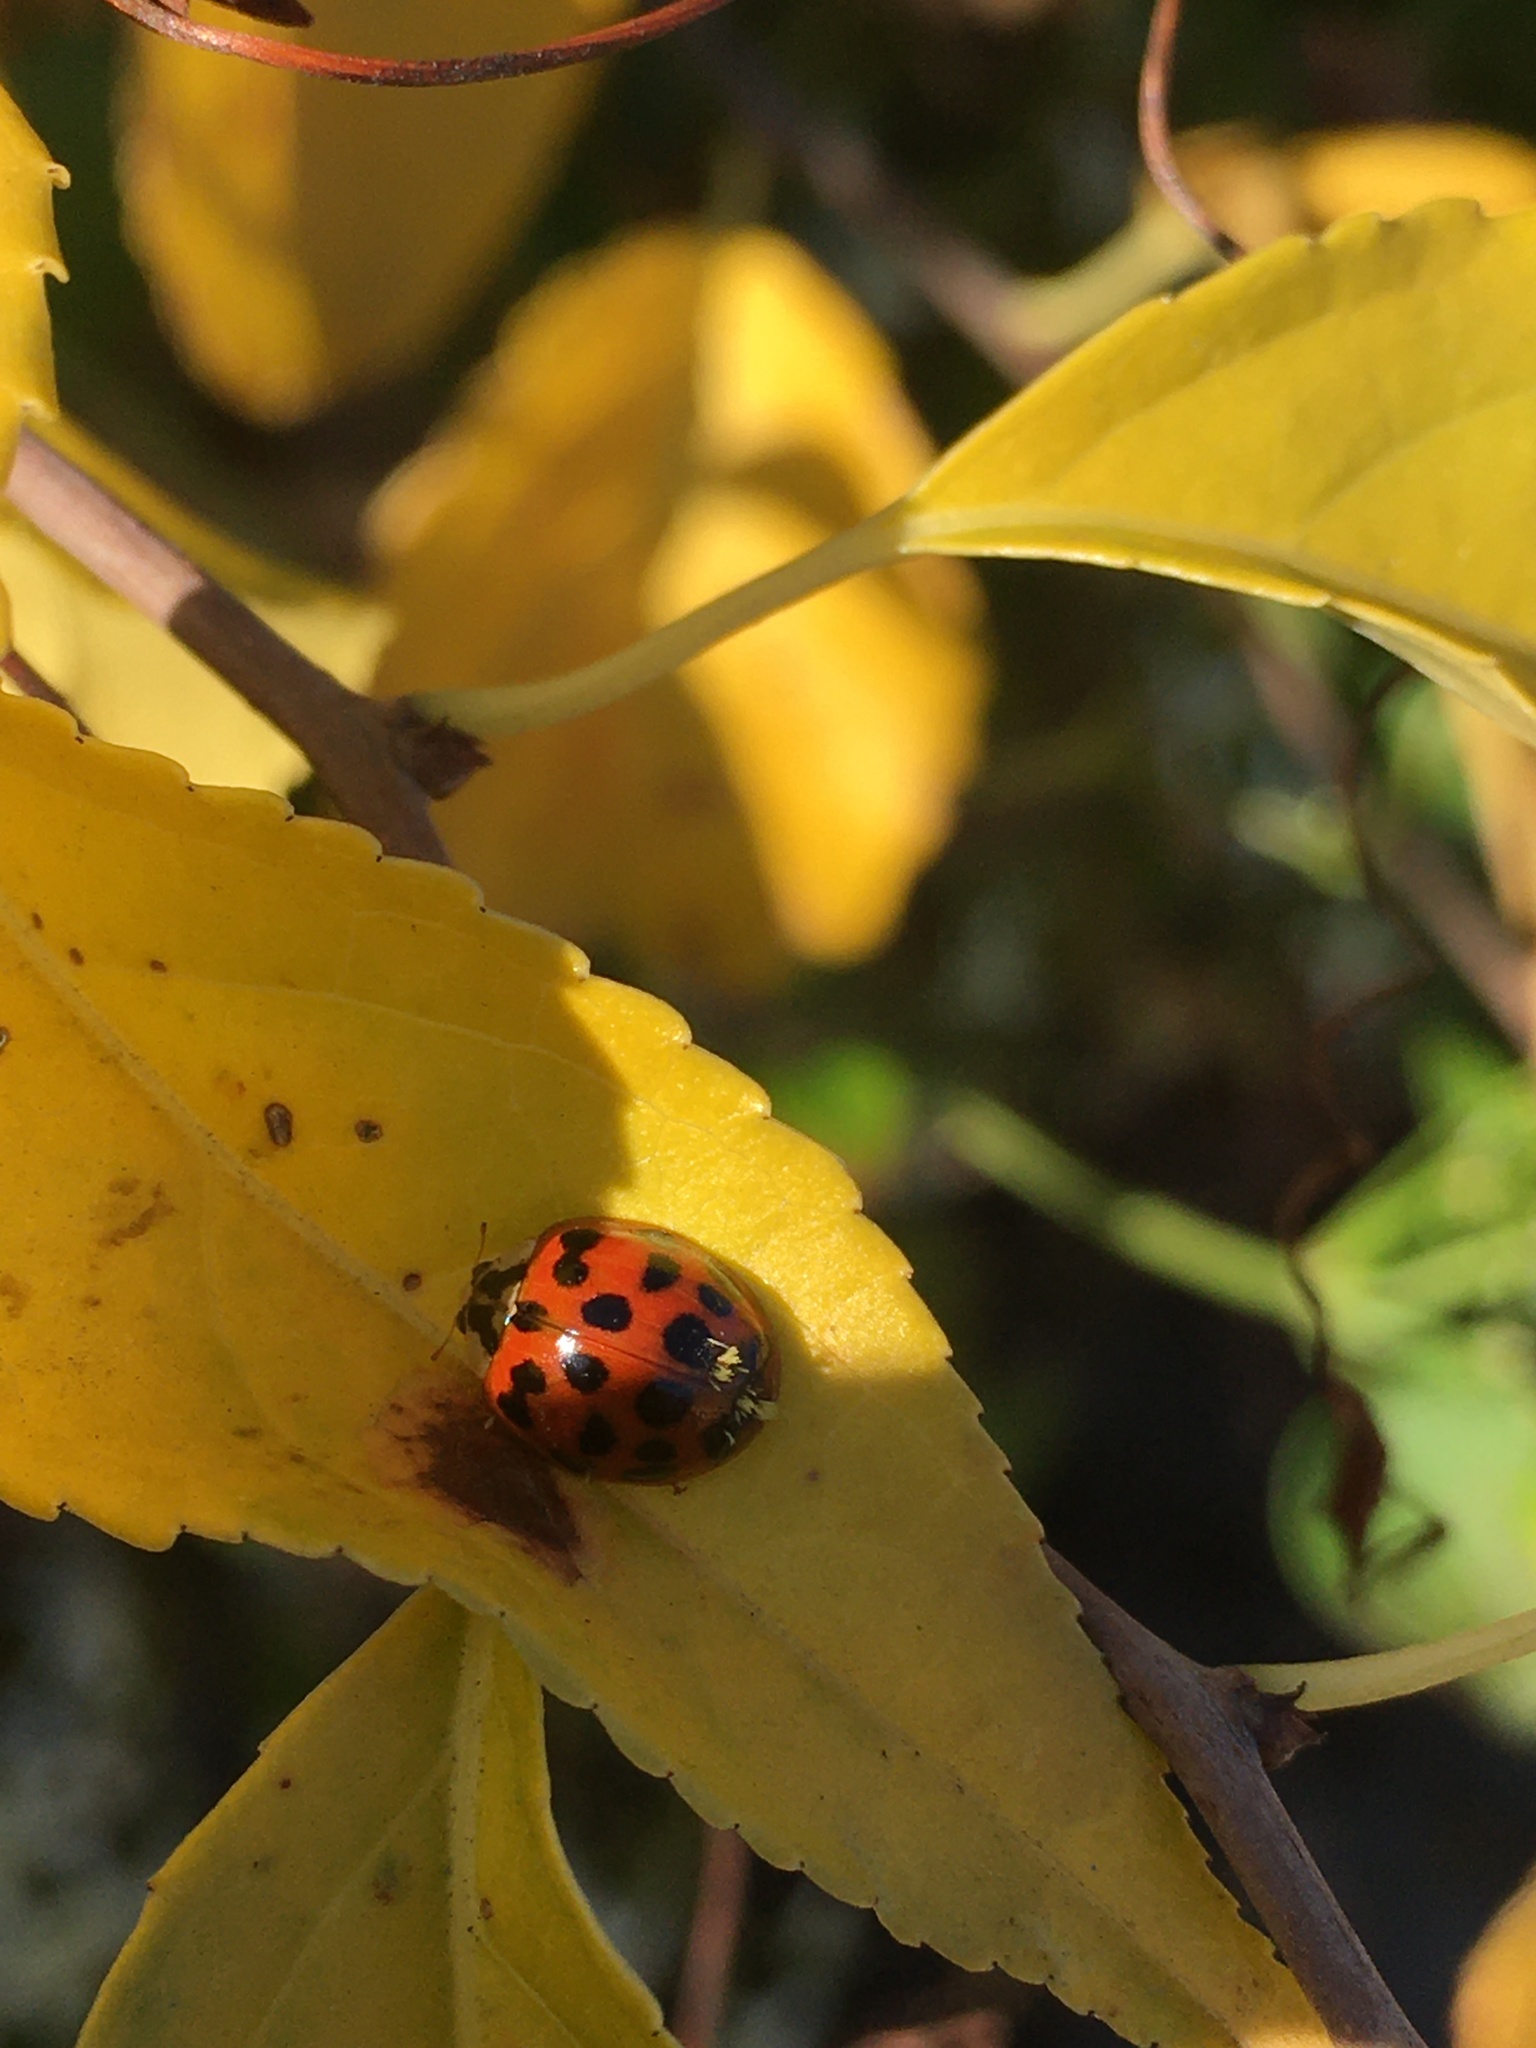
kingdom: Animalia
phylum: Arthropoda
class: Insecta
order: Coleoptera
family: Coccinellidae
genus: Harmonia
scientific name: Harmonia axyridis
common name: Harlequin ladybird
